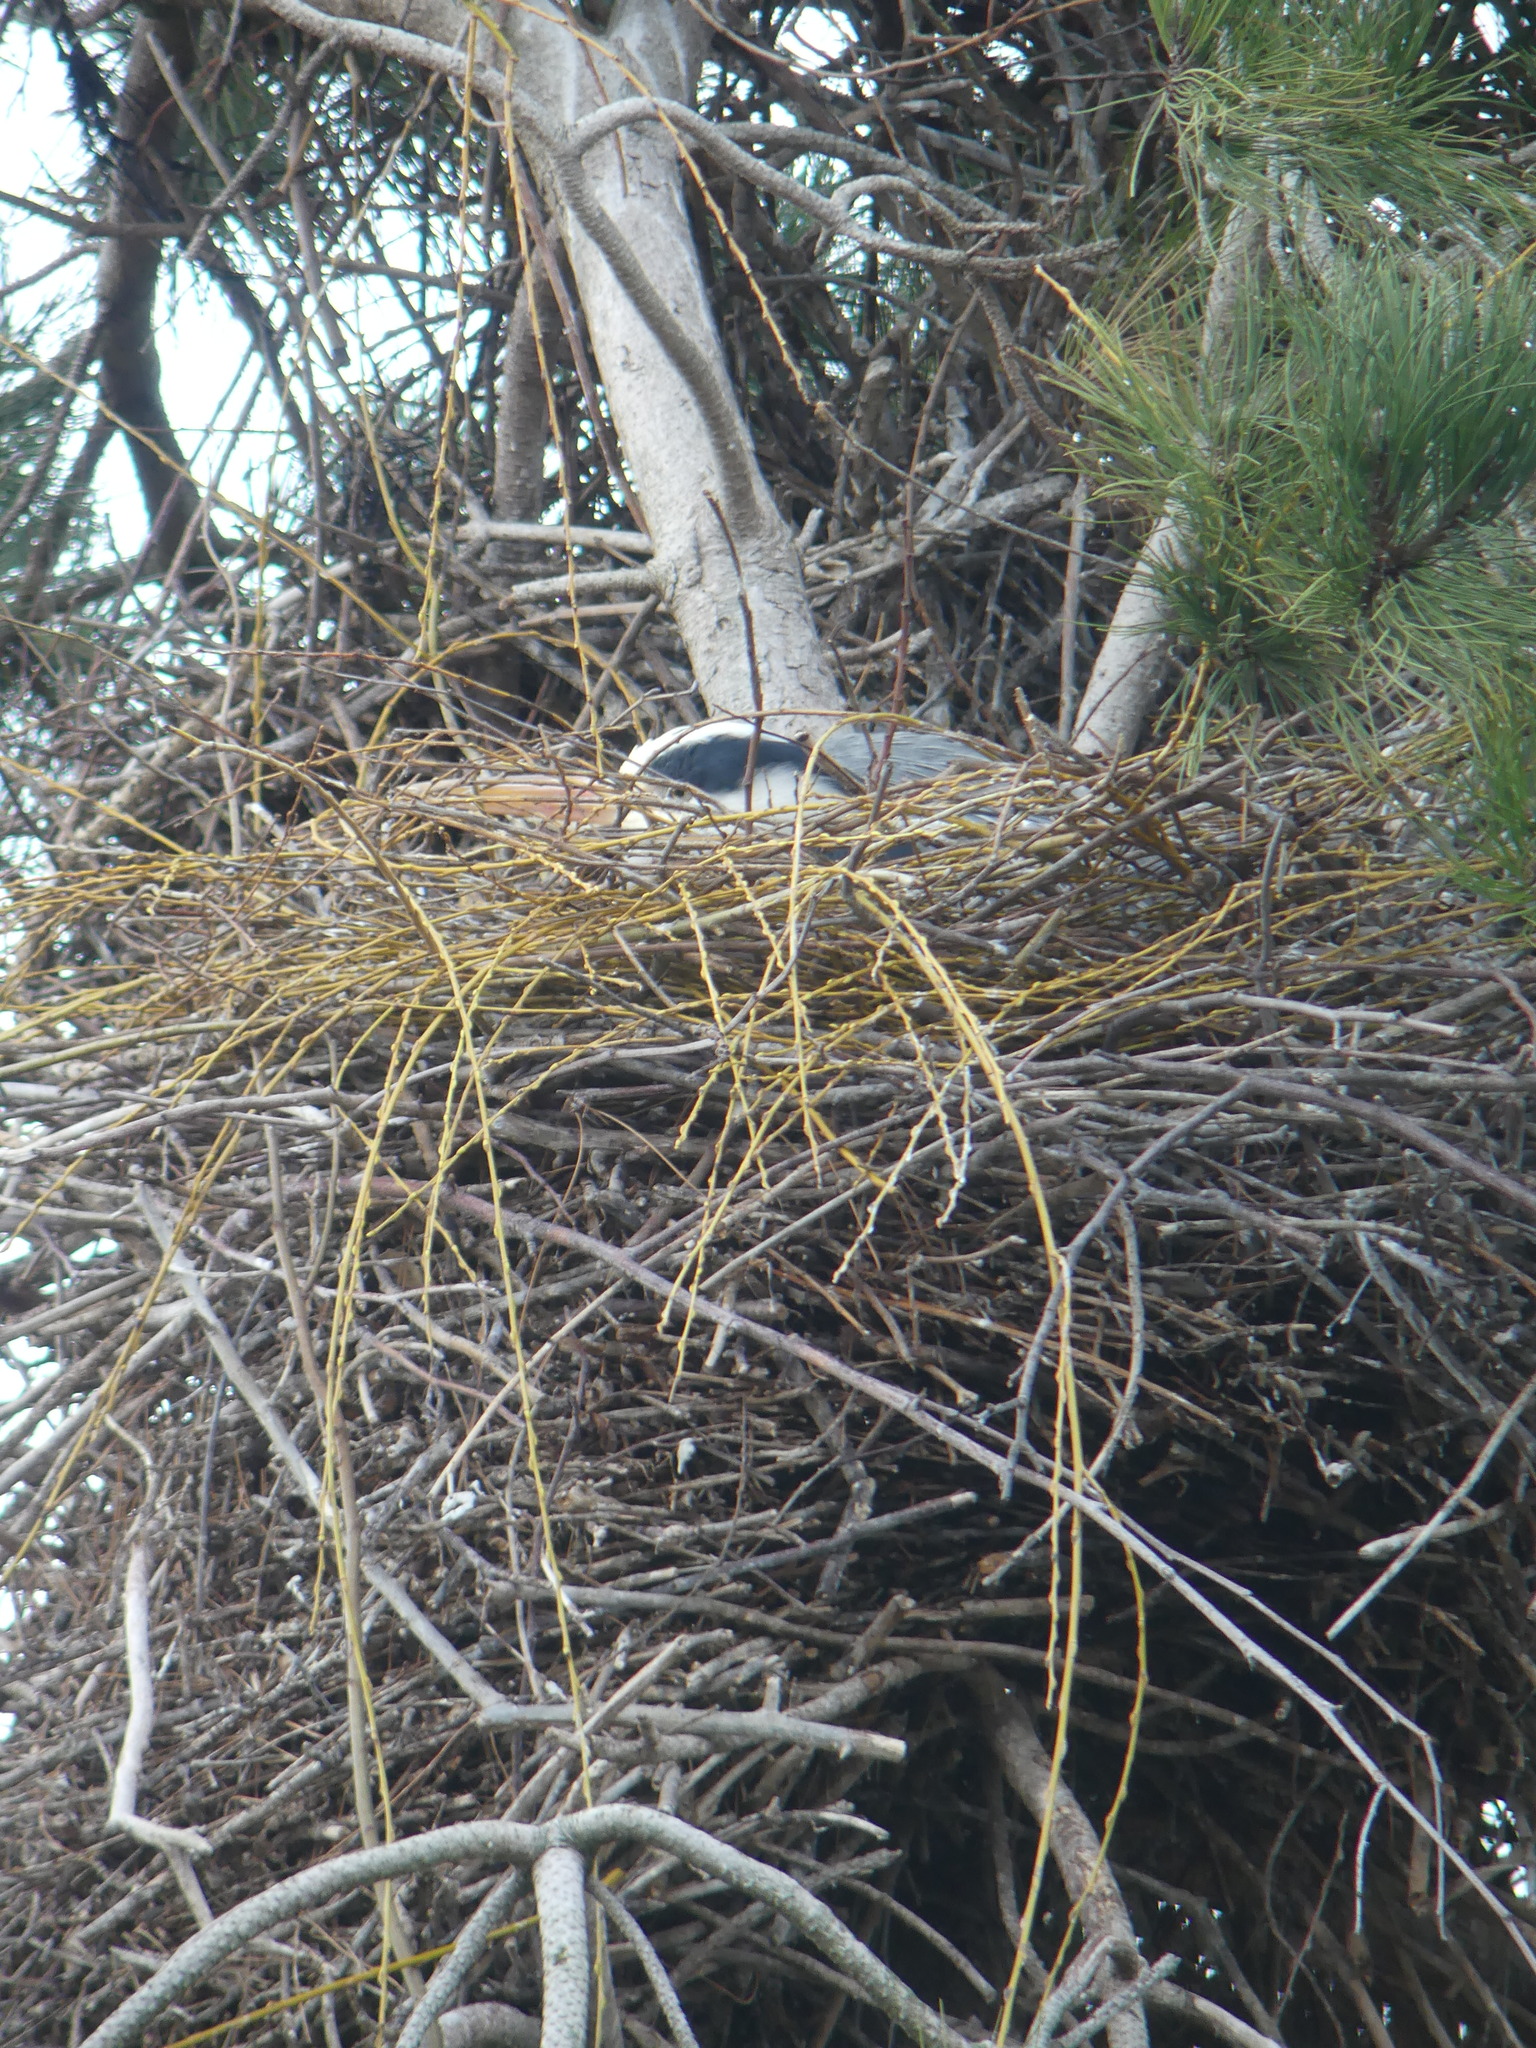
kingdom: Animalia
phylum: Chordata
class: Aves
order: Pelecaniformes
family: Ardeidae
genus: Ardea
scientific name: Ardea cinerea
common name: Grey heron
